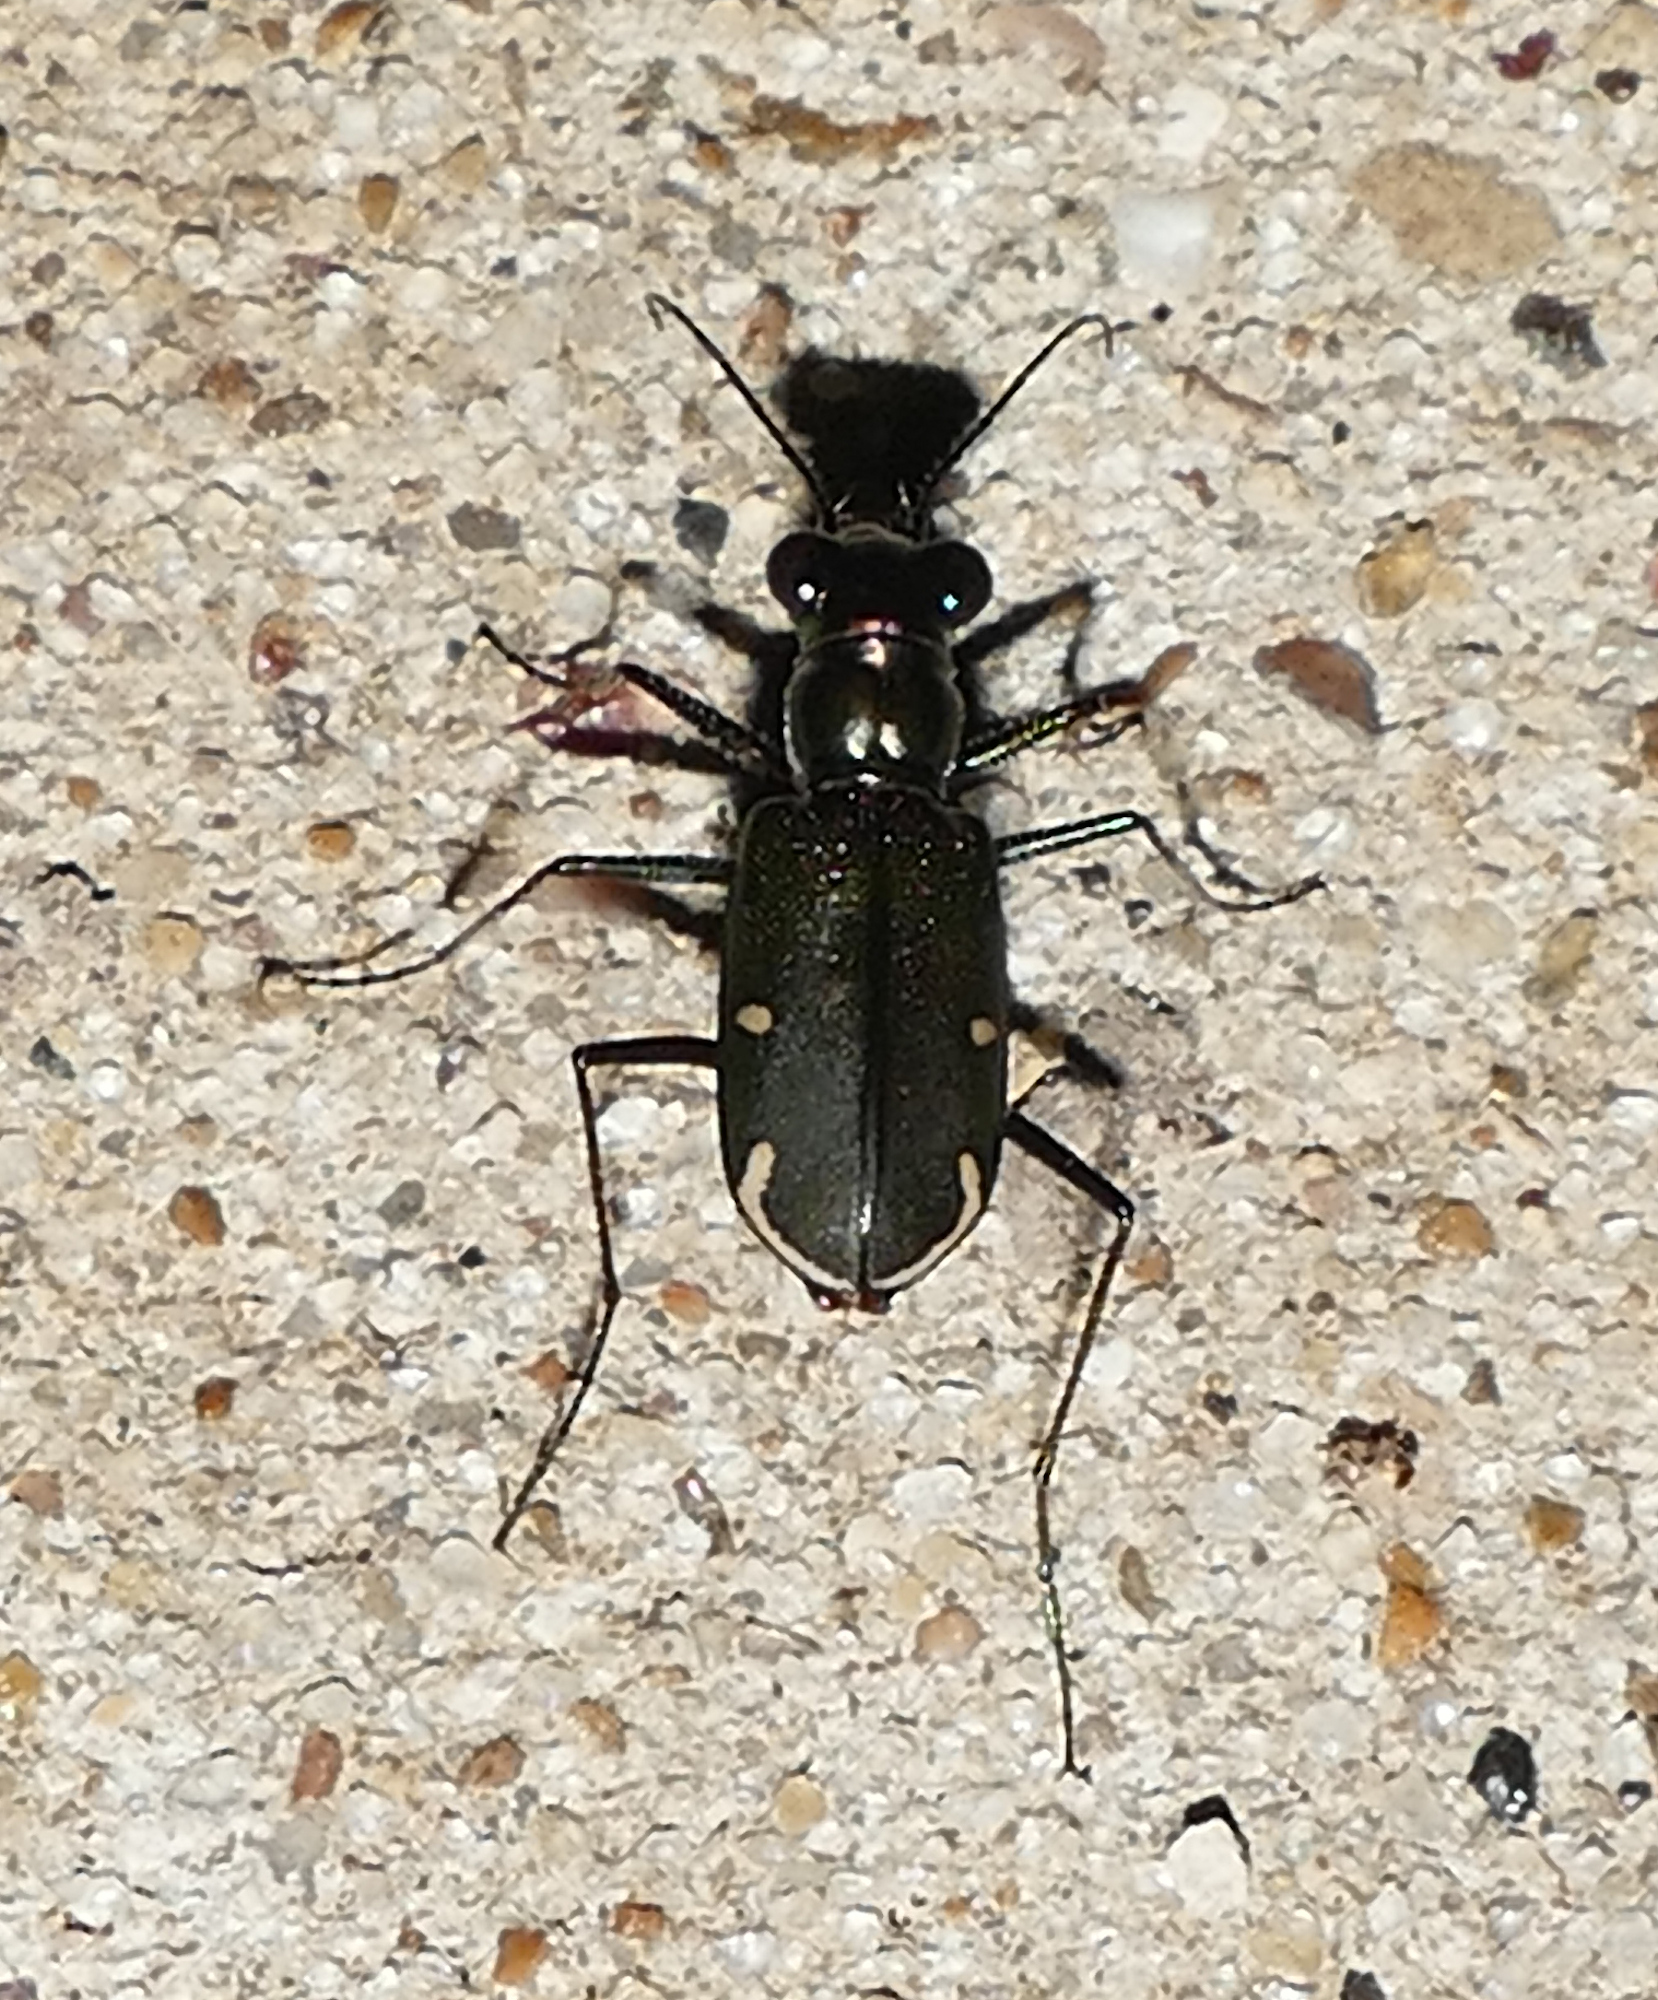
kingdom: Animalia
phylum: Arthropoda
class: Insecta
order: Coleoptera
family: Carabidae
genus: Eunota
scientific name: Eunota severa
